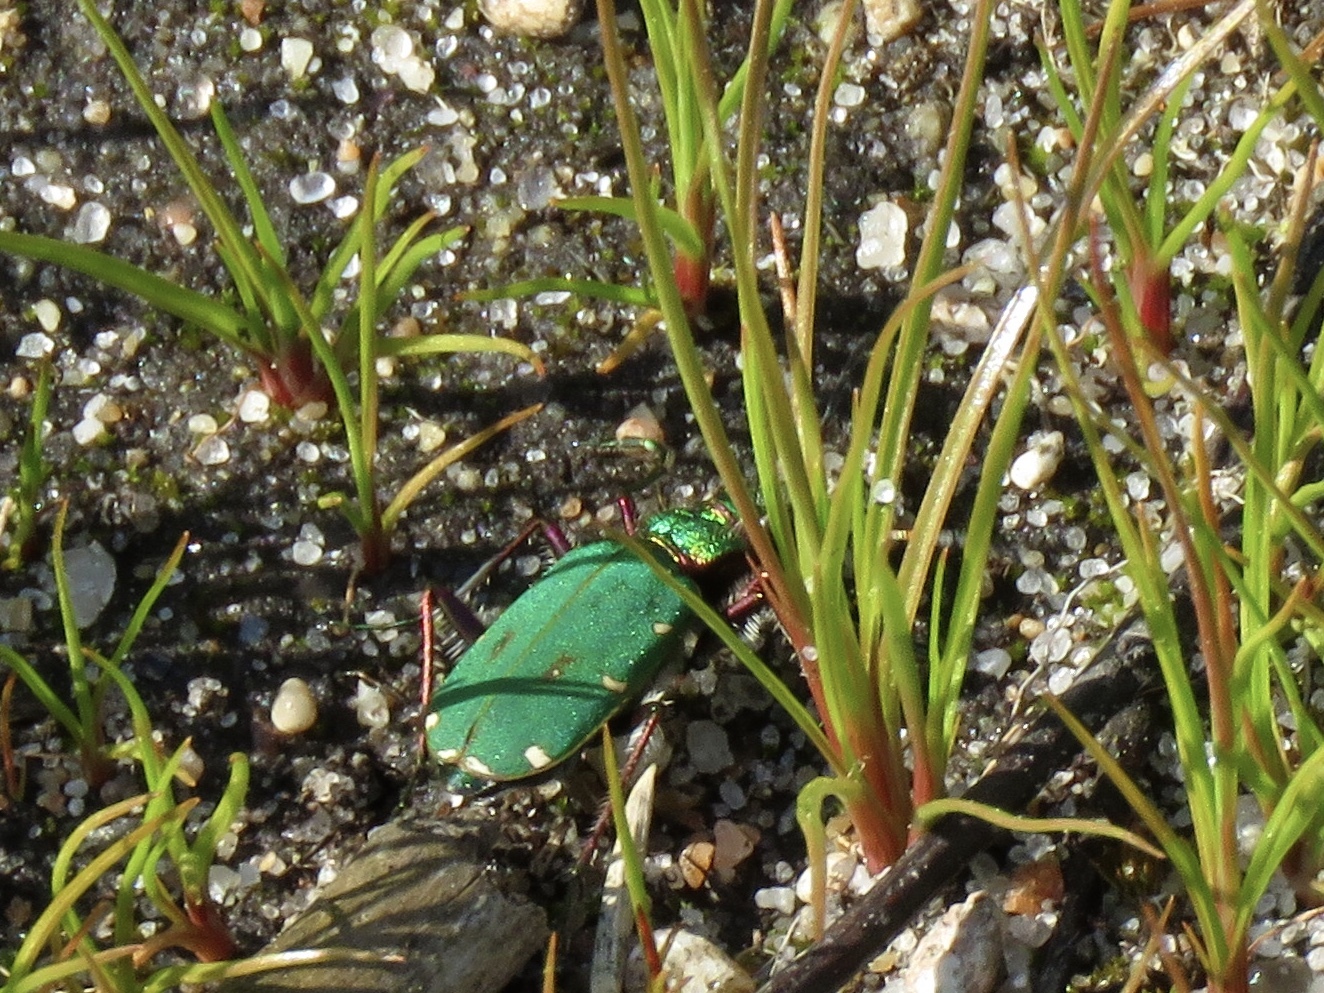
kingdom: Animalia
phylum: Arthropoda
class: Insecta
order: Coleoptera
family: Carabidae
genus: Cicindela
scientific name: Cicindela campestris
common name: Common tiger beetle
